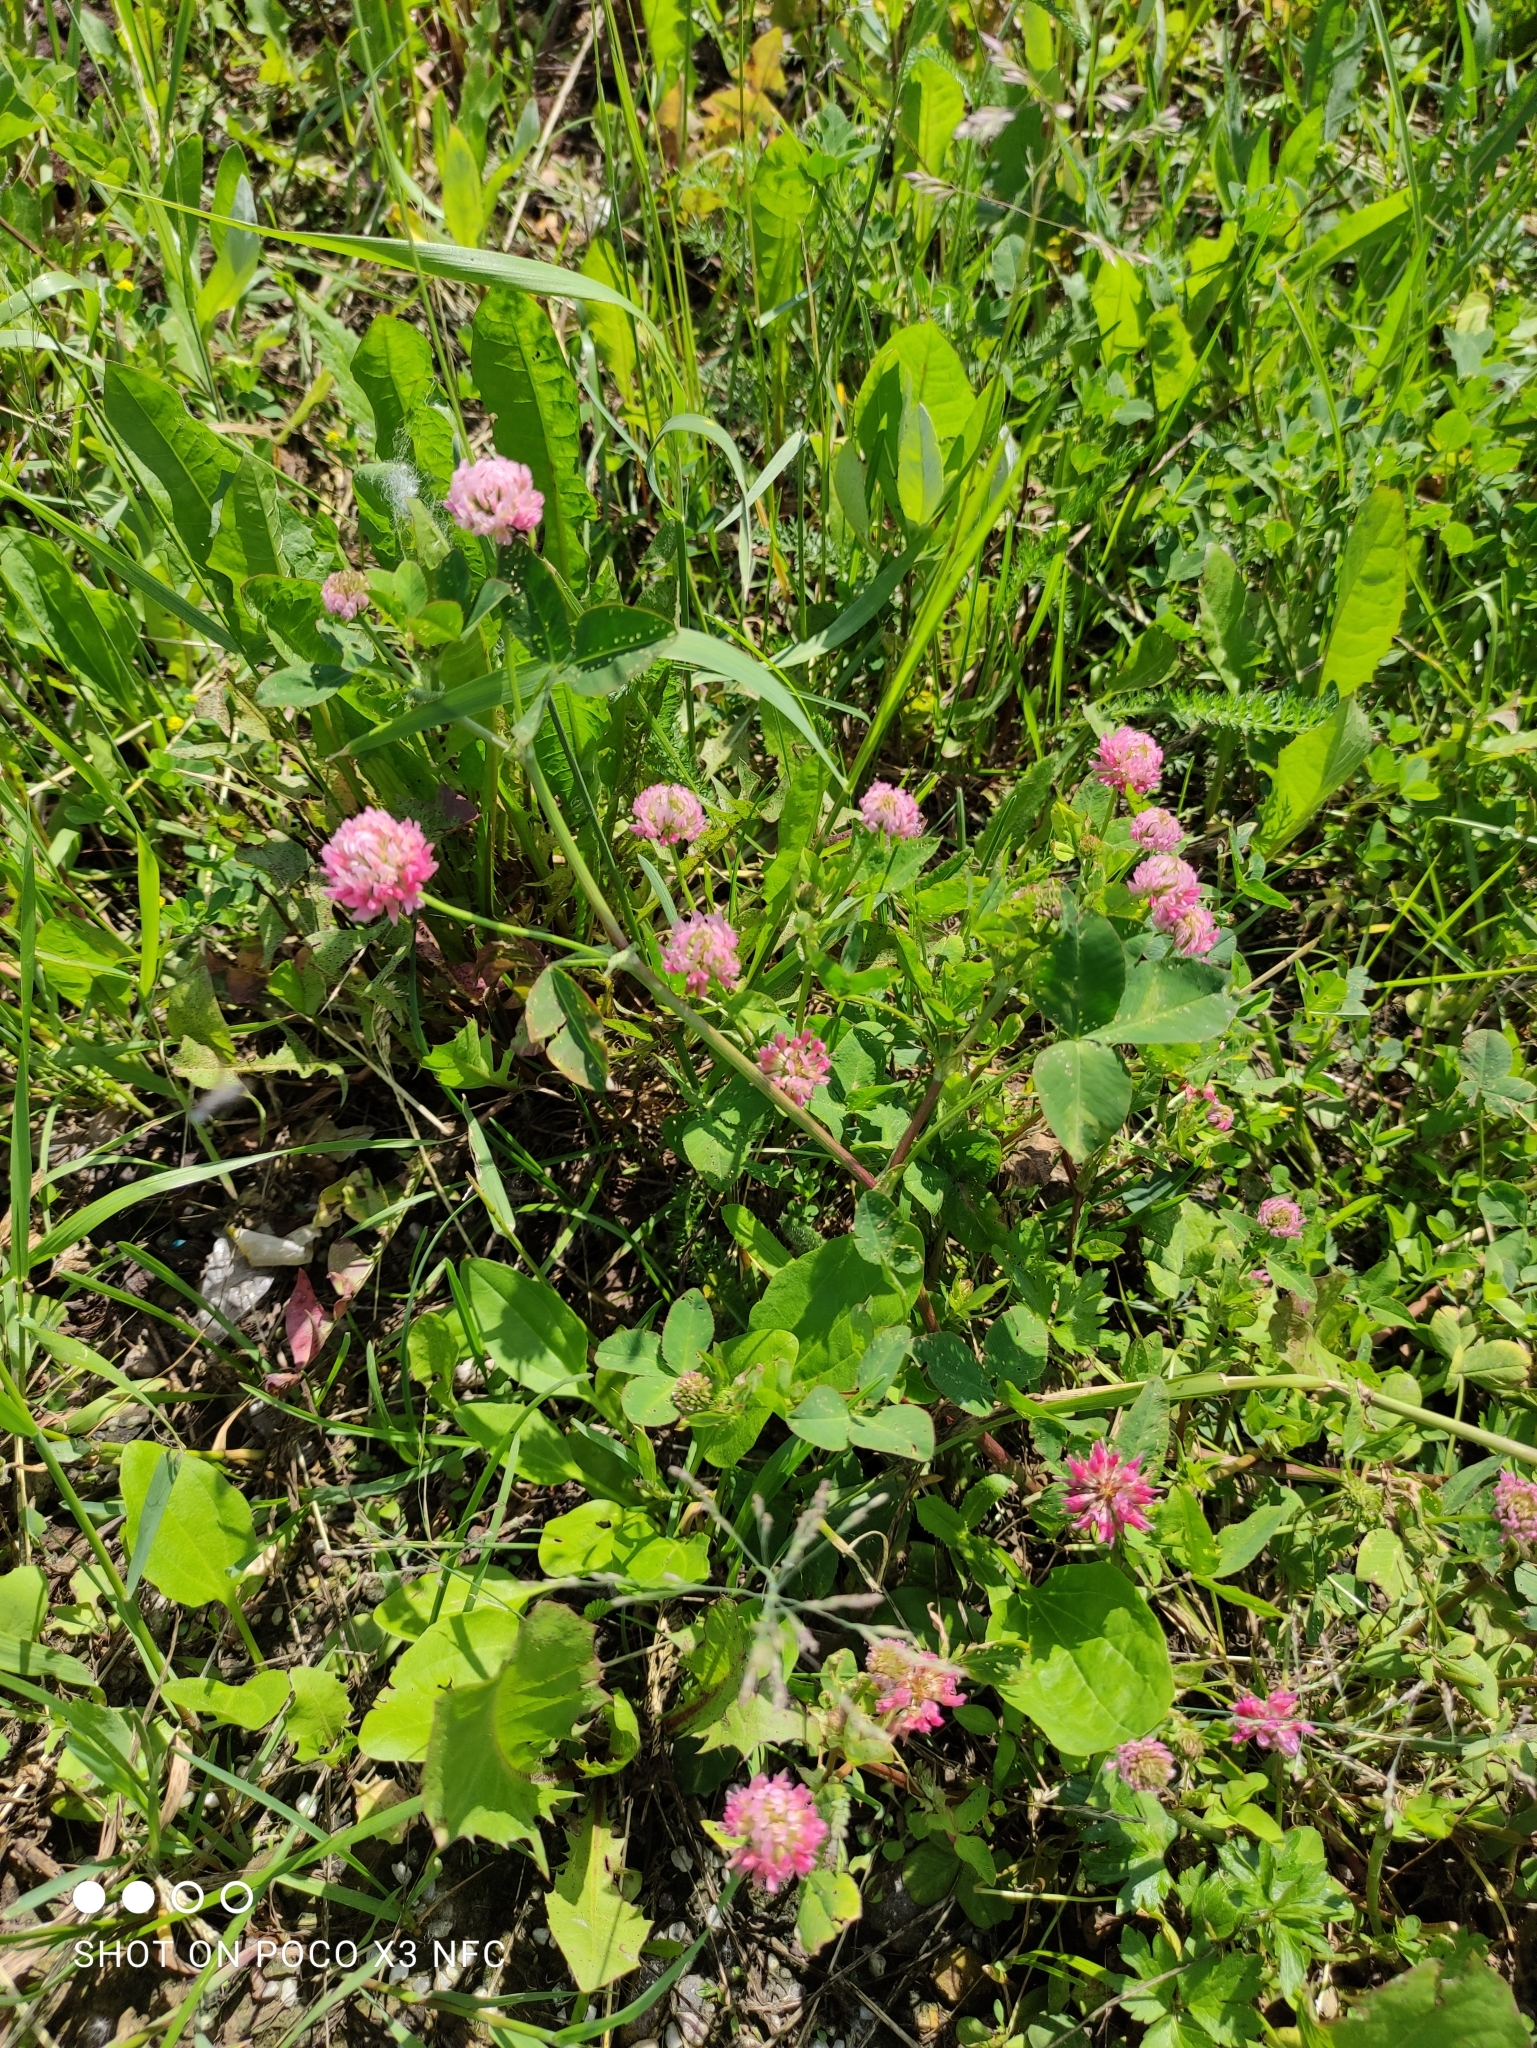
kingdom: Plantae
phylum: Tracheophyta
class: Magnoliopsida
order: Fabales
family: Fabaceae
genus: Trifolium
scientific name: Trifolium hybridum
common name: Alsike clover
